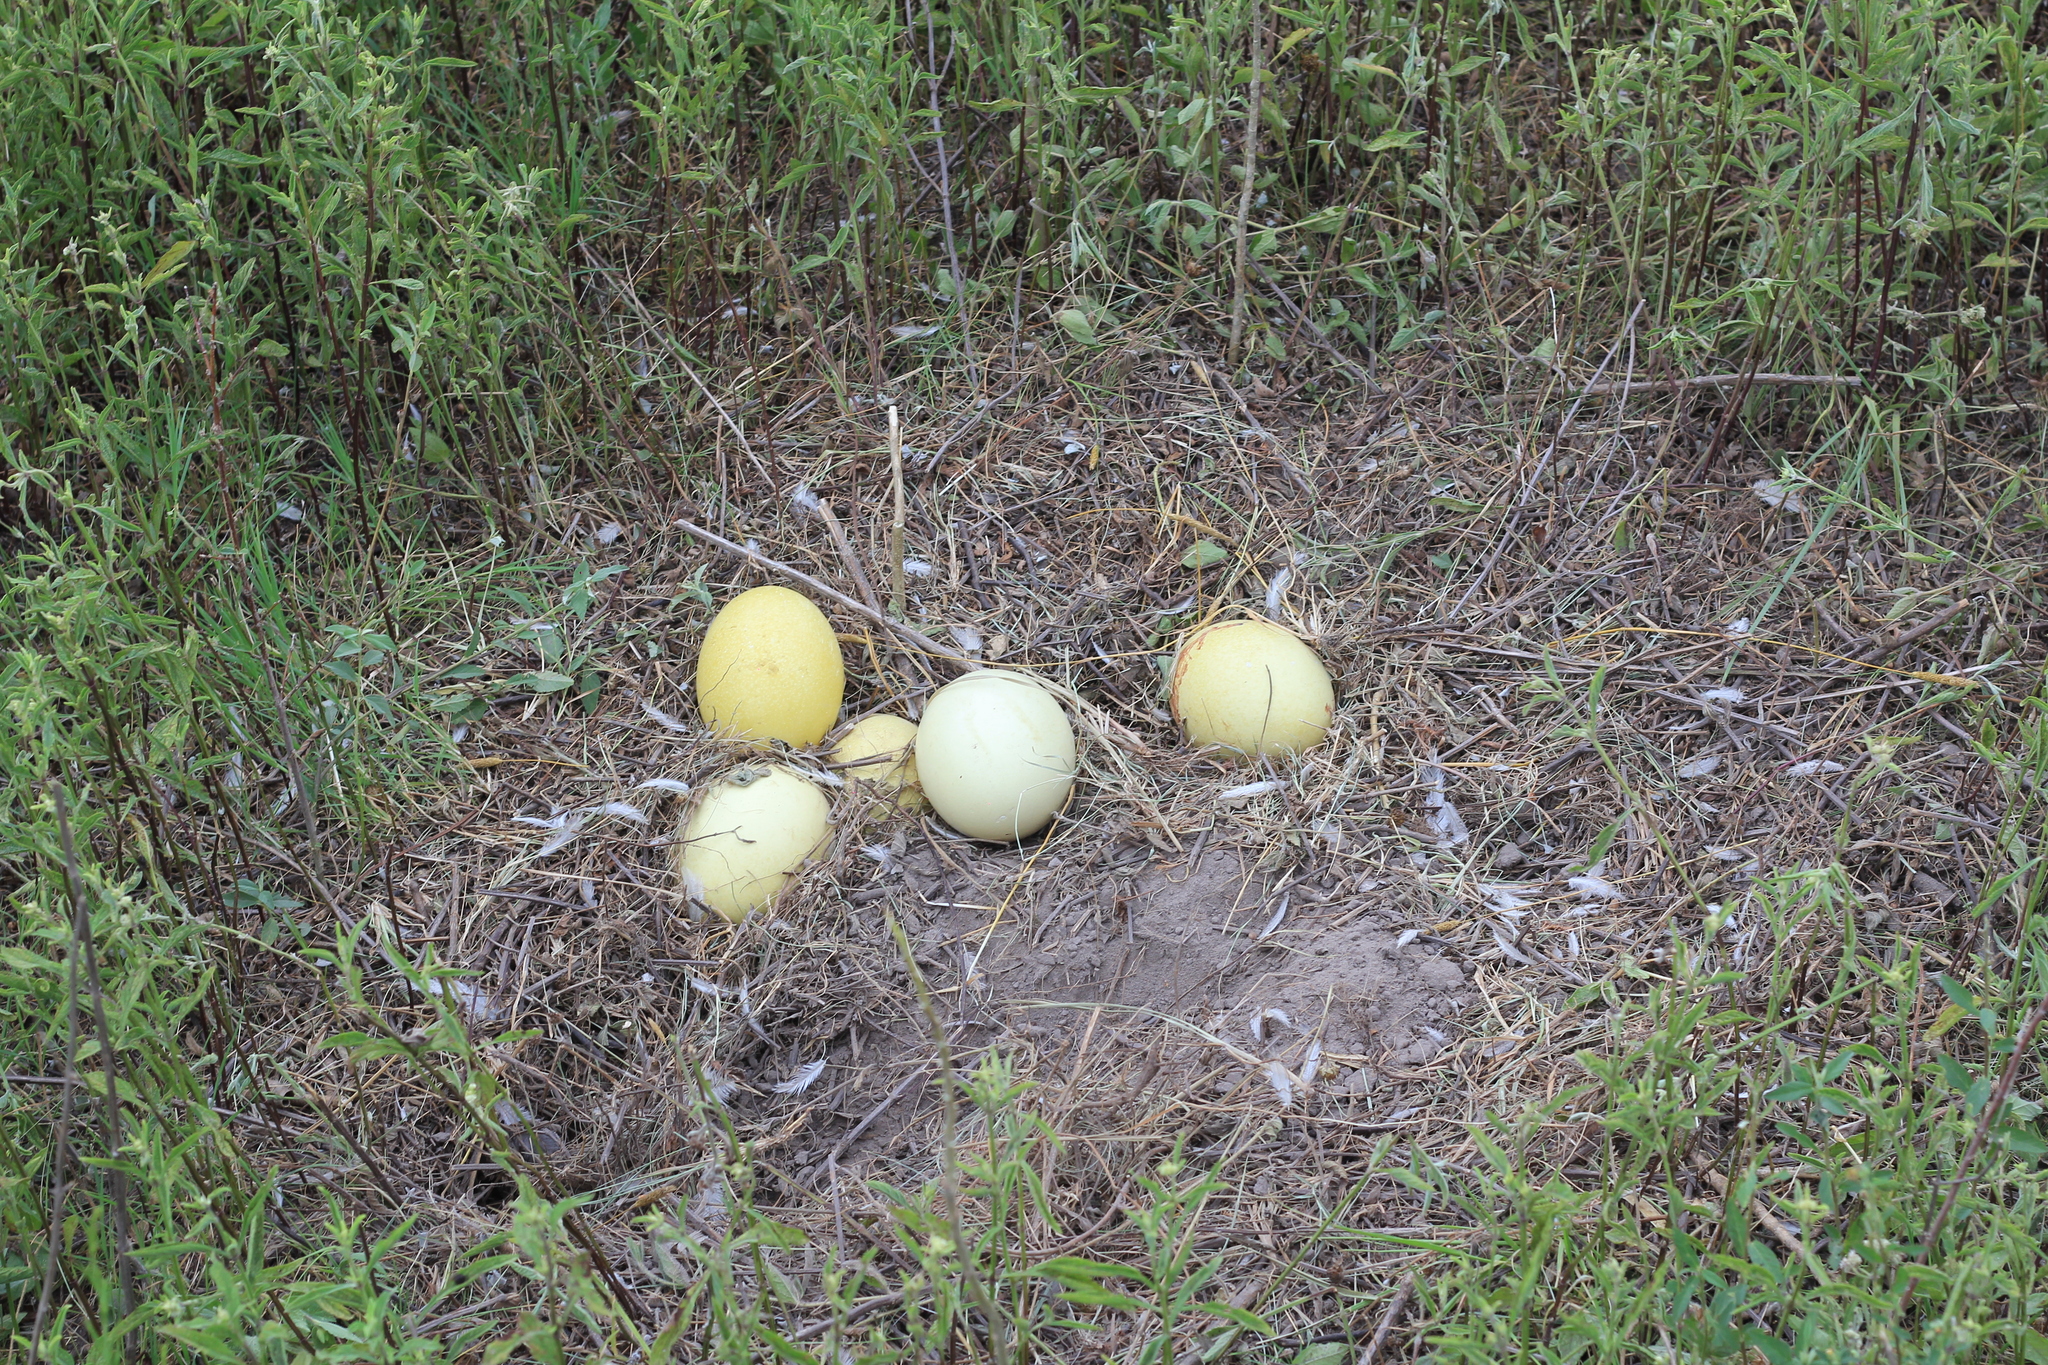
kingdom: Animalia
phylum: Chordata
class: Aves
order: Rheiformes
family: Rheidae
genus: Rhea
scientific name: Rhea americana
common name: Greater rhea
